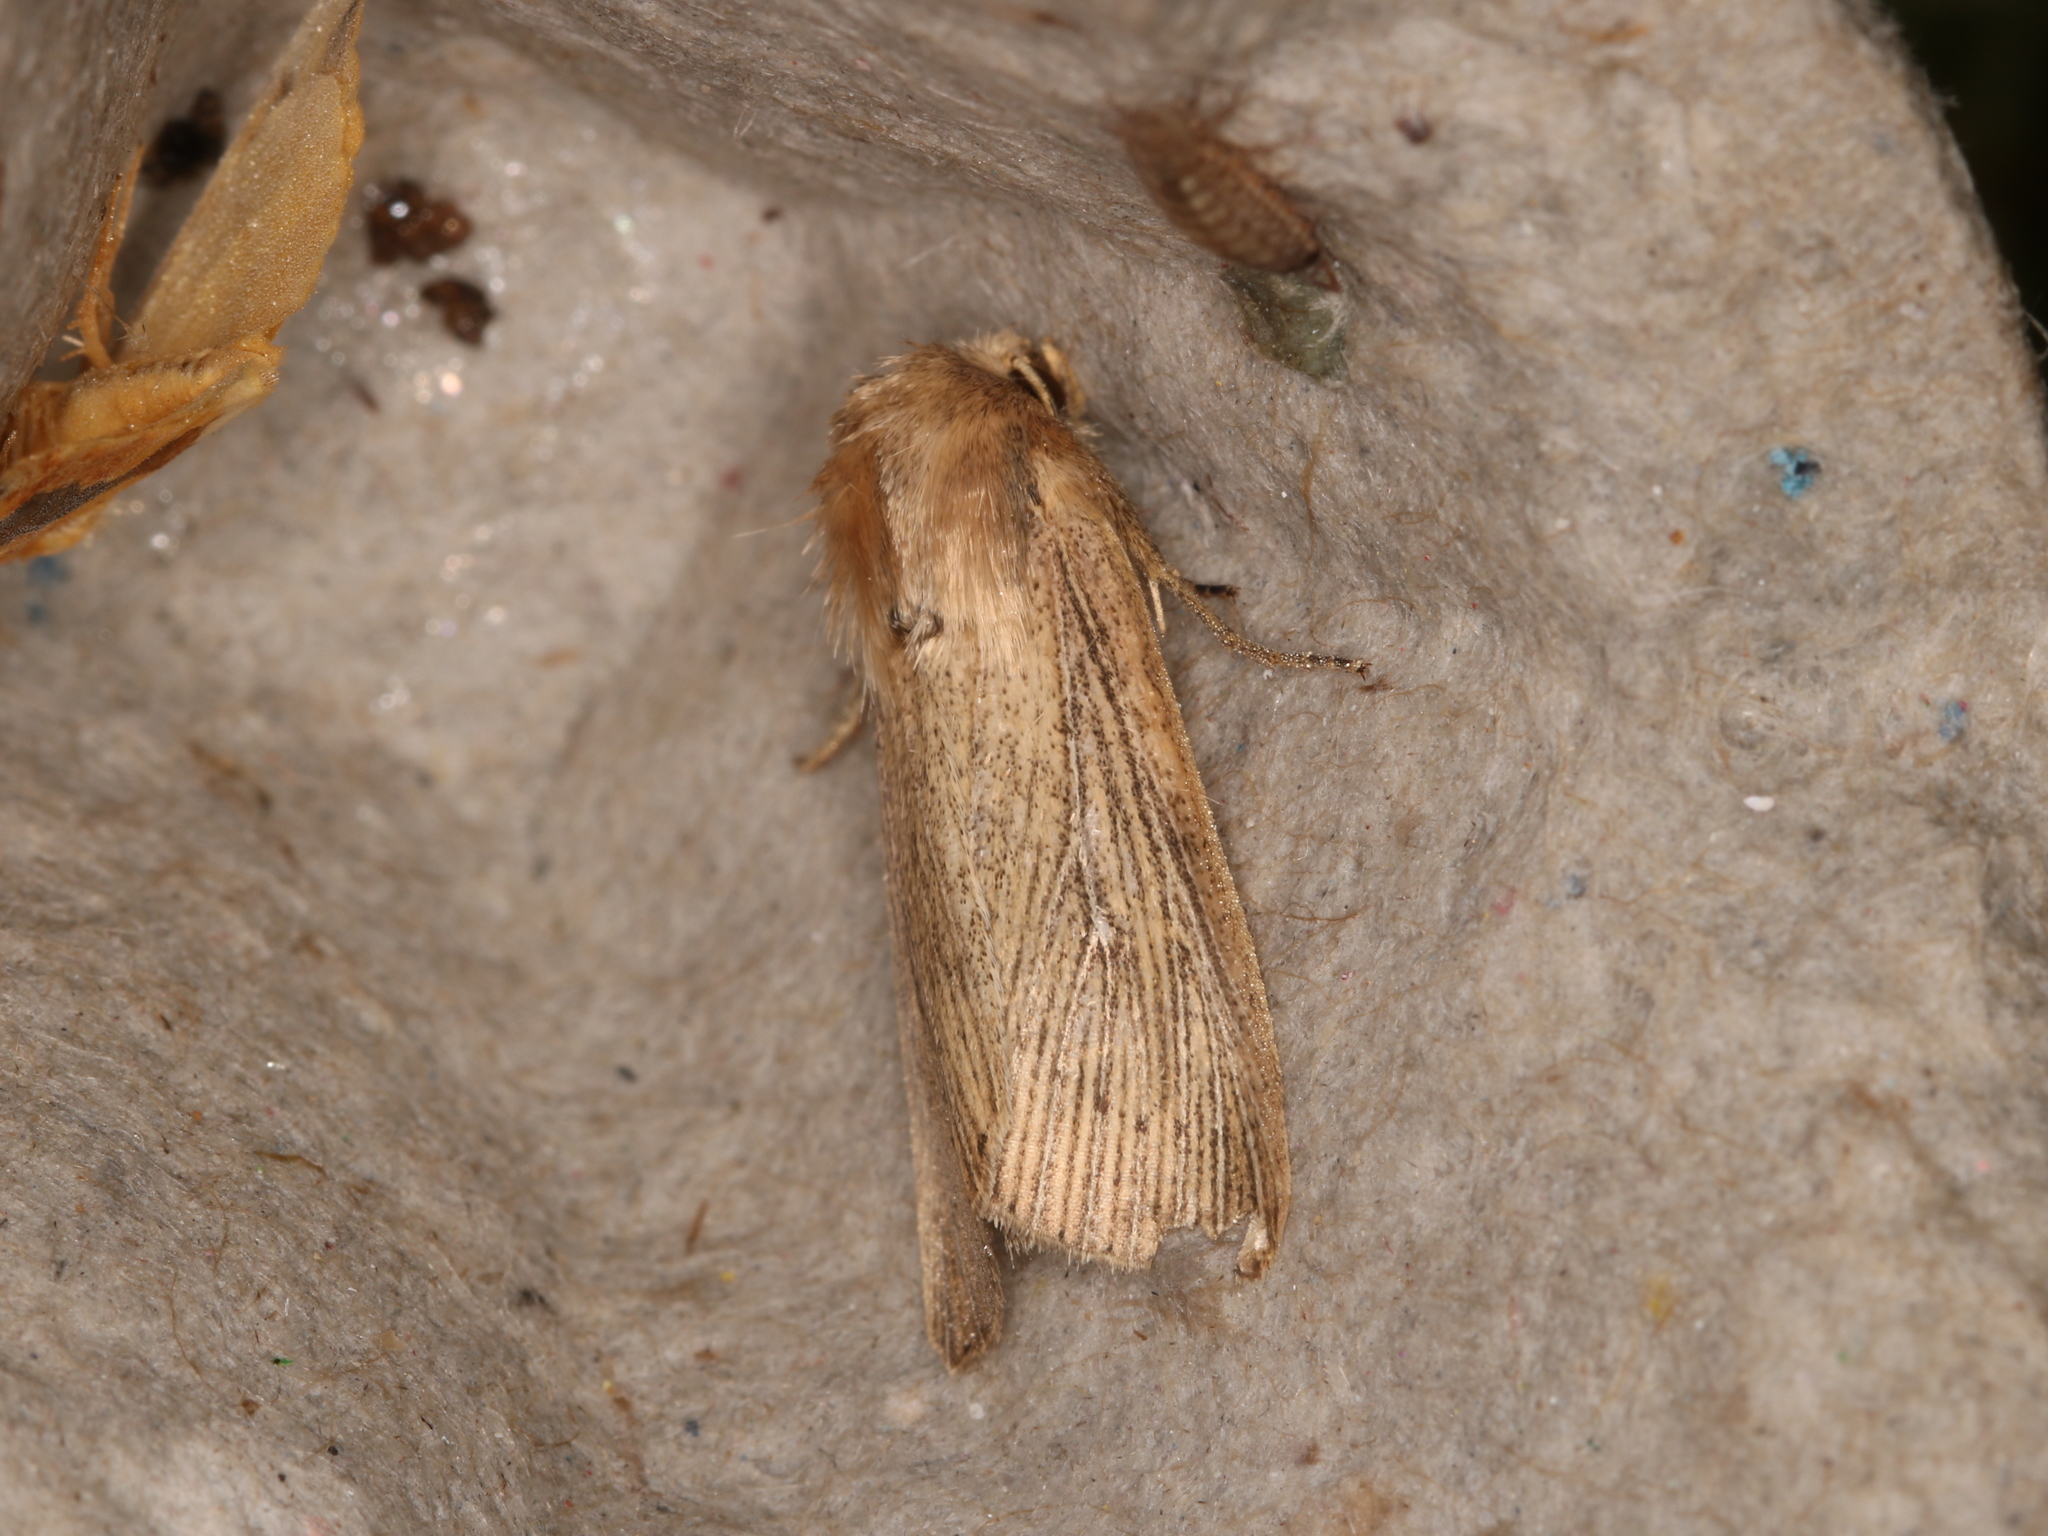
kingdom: Animalia
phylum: Arthropoda
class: Insecta
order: Lepidoptera
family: Noctuidae
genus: Leucania
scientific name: Leucania obsoleta
